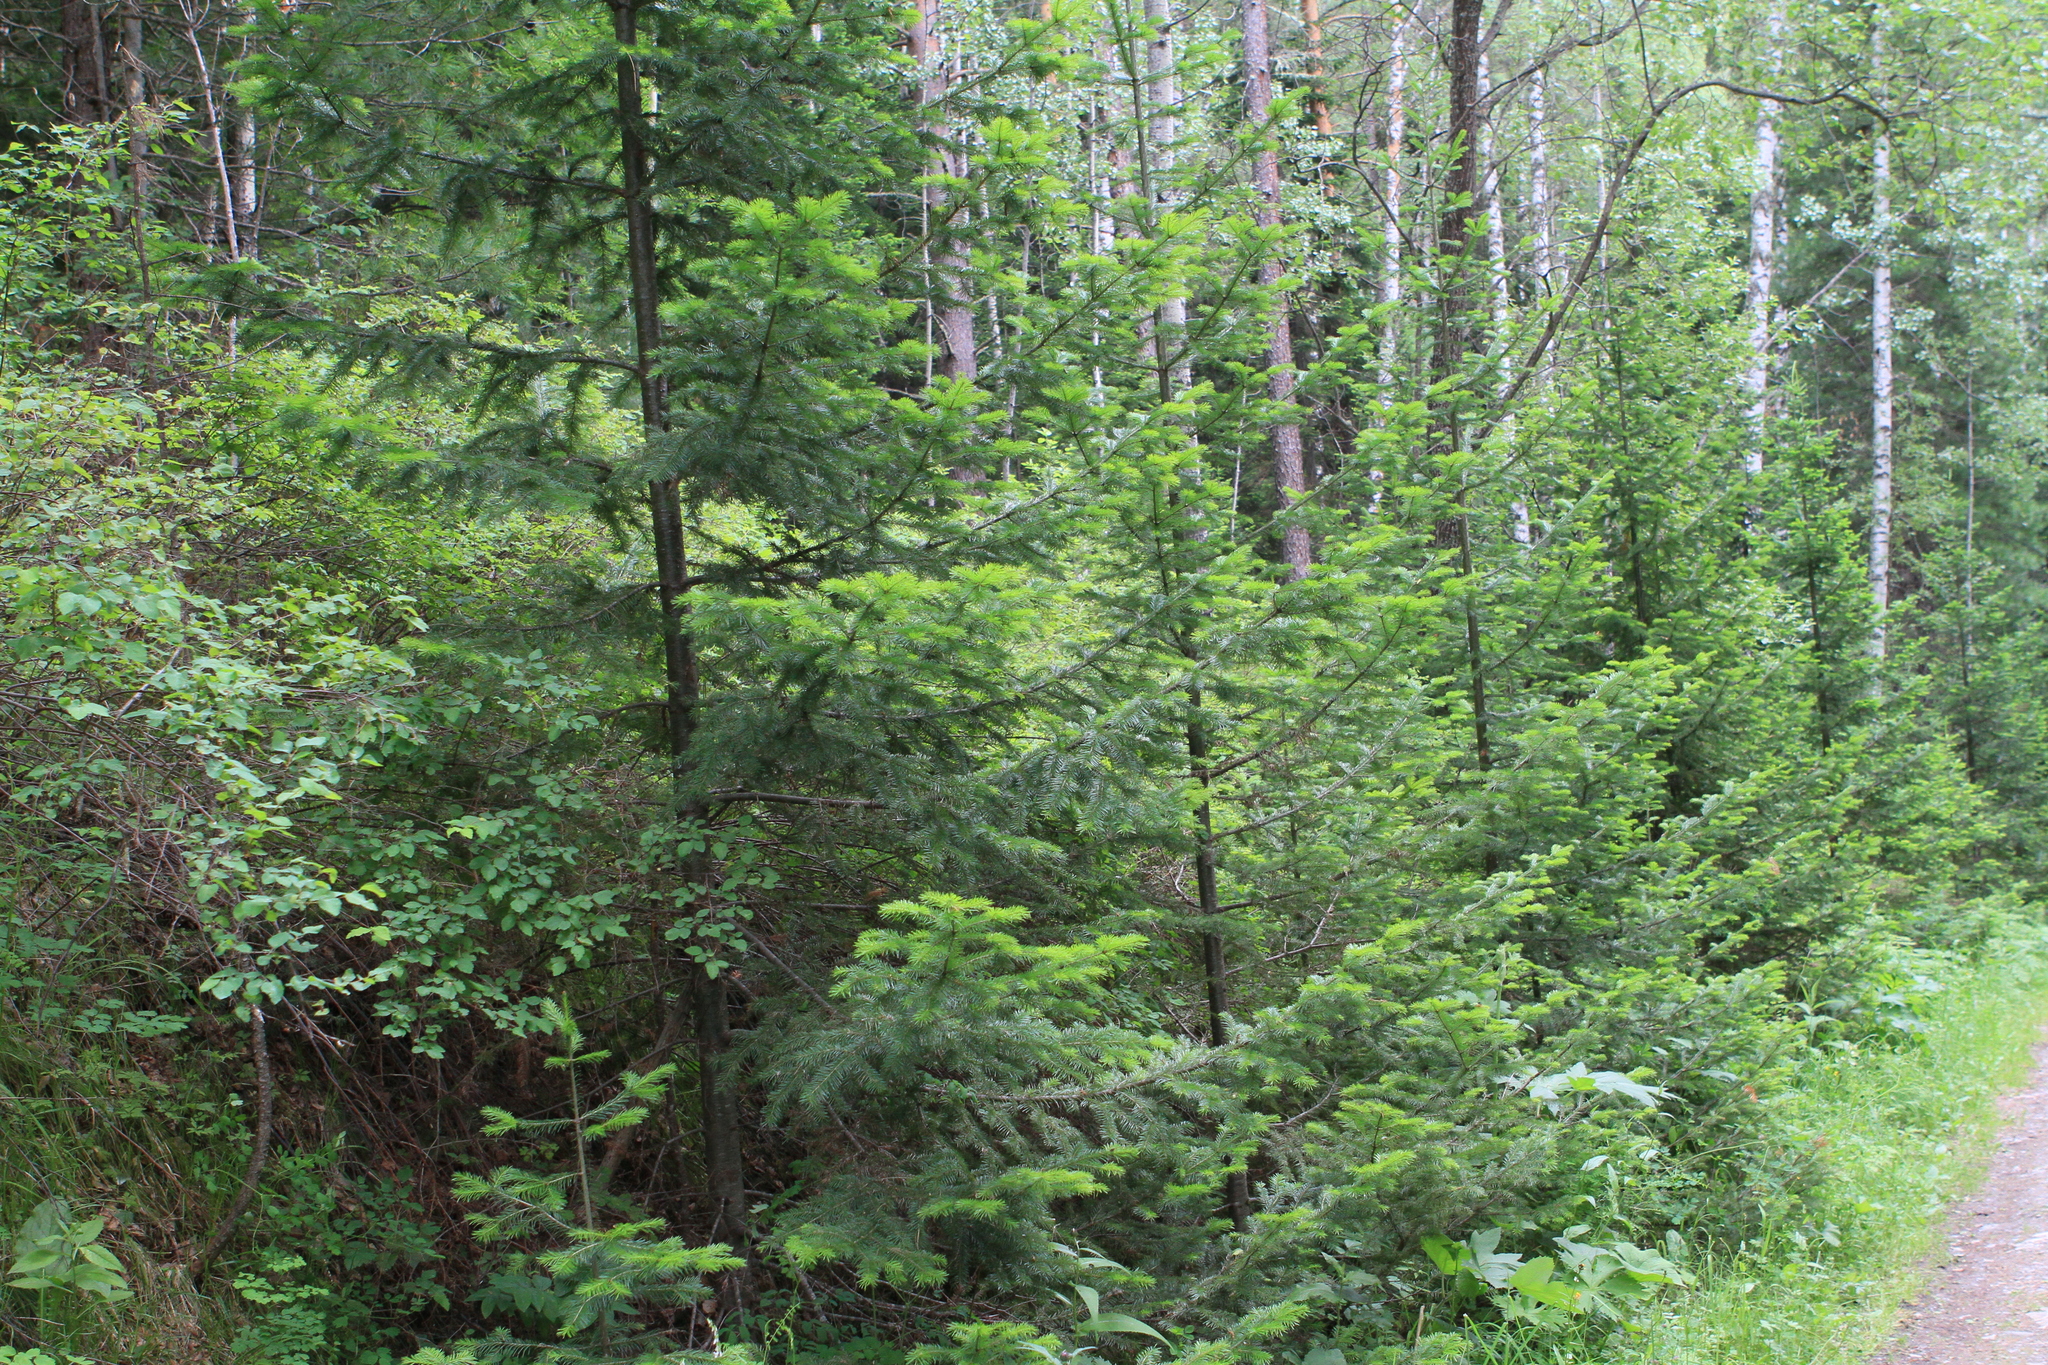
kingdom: Plantae
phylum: Tracheophyta
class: Pinopsida
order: Pinales
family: Pinaceae
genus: Abies
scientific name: Abies sibirica
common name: Siberian fir
